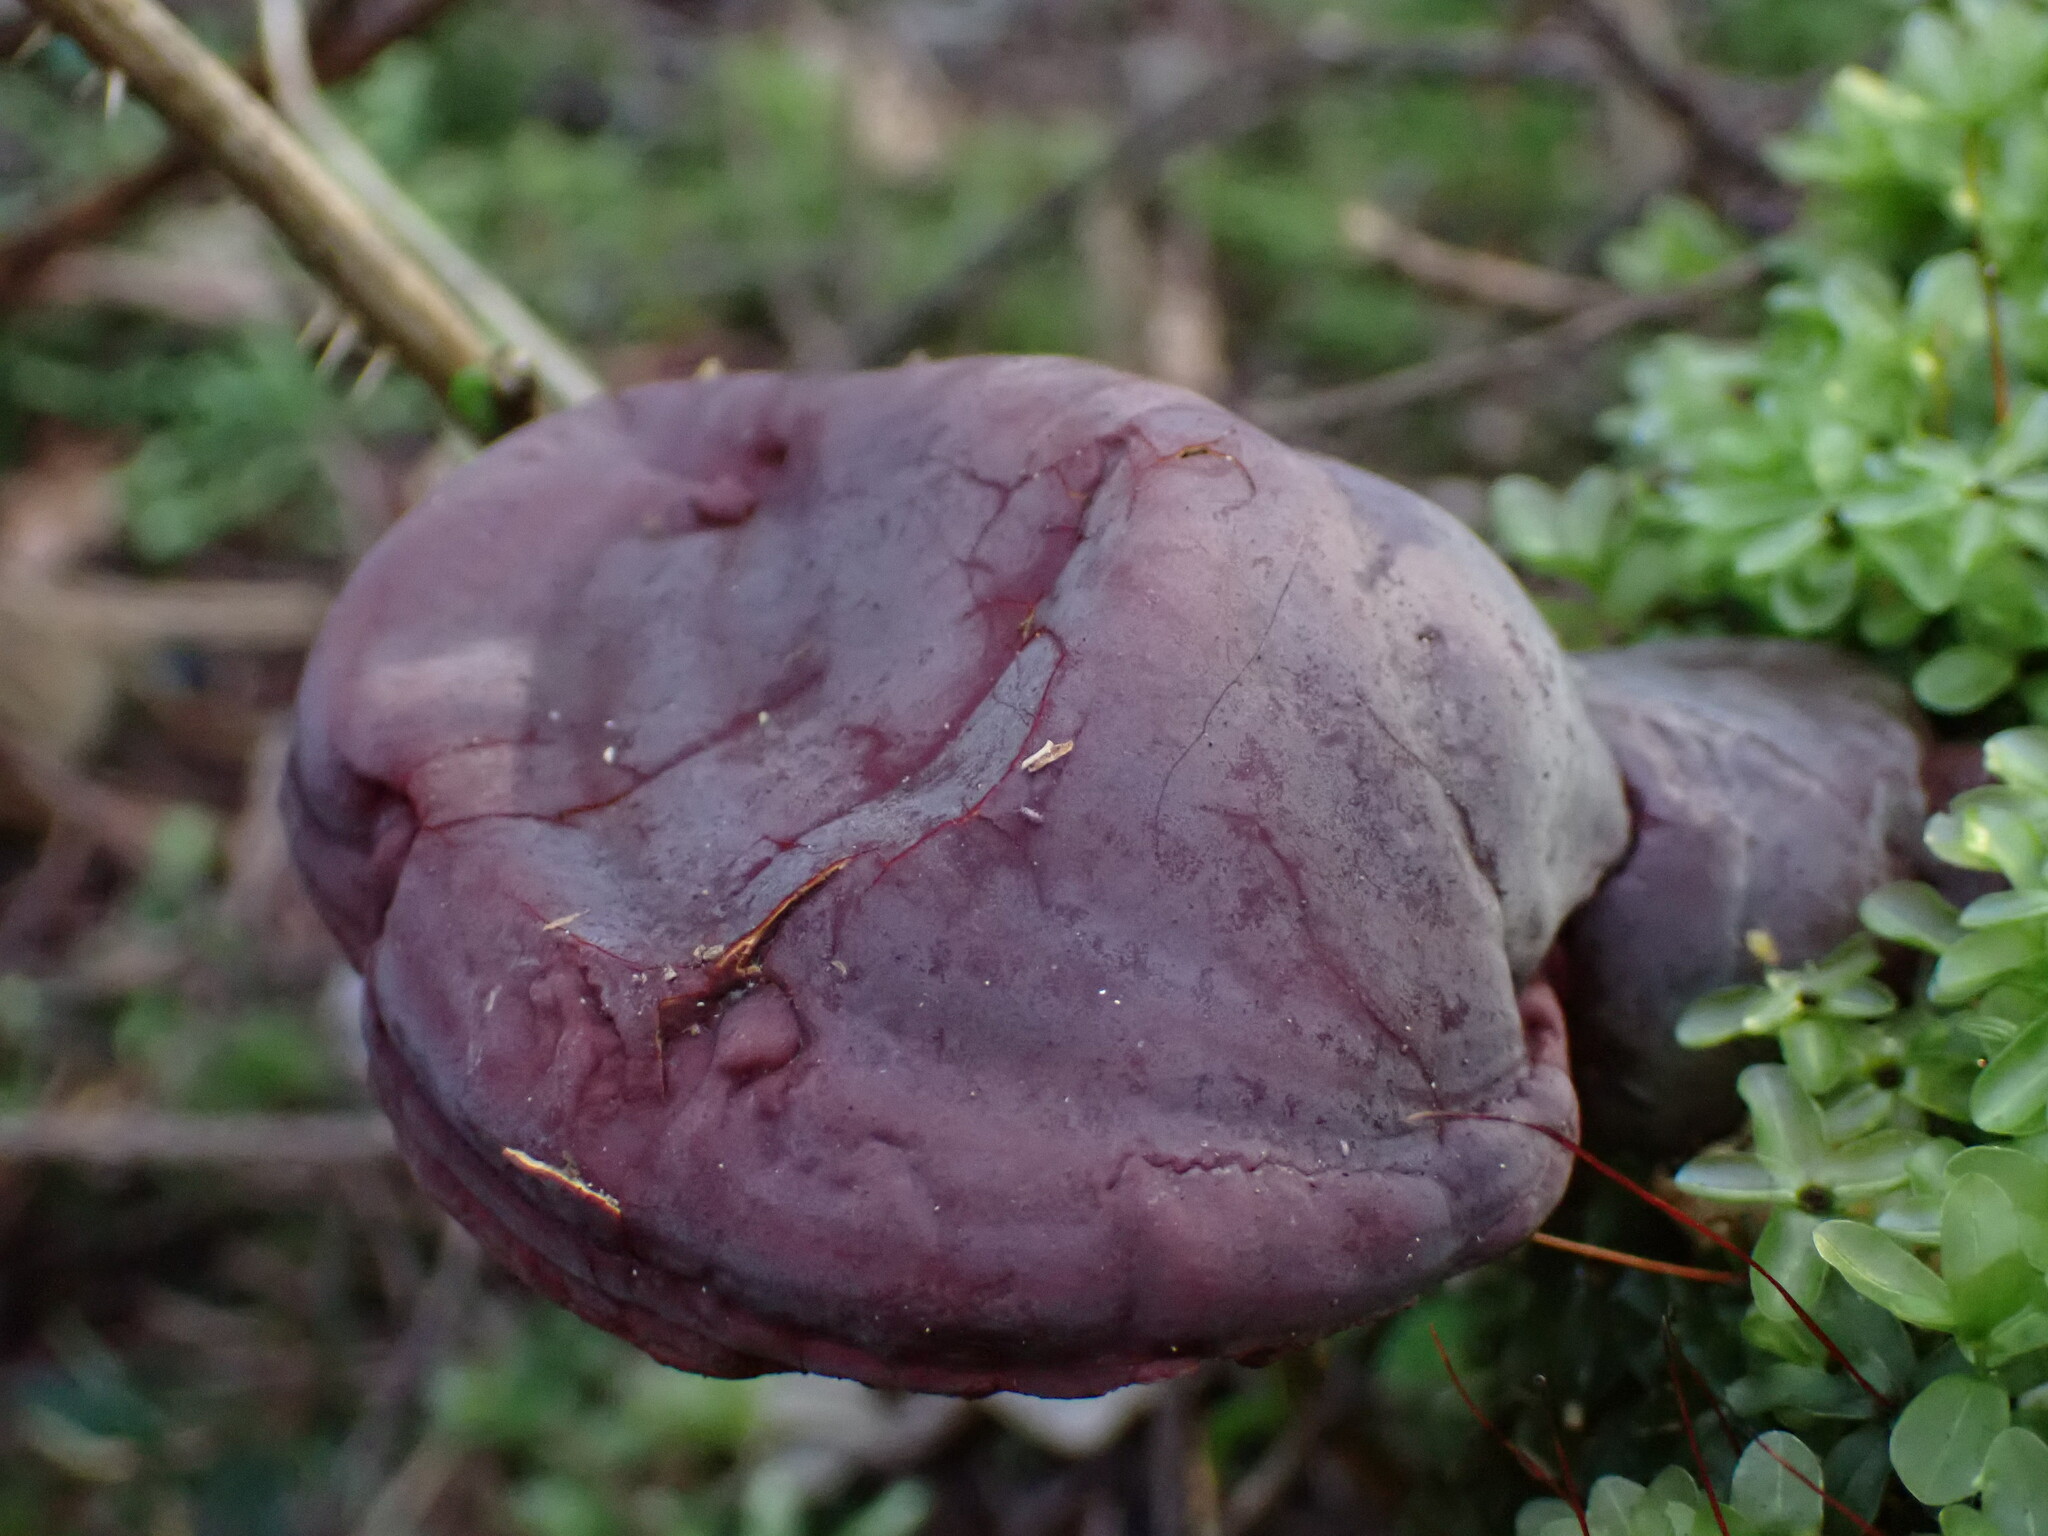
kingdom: Fungi
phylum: Basidiomycota
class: Agaricomycetes
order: Polyporales
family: Polyporaceae
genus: Ganoderma
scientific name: Ganoderma oregonense
